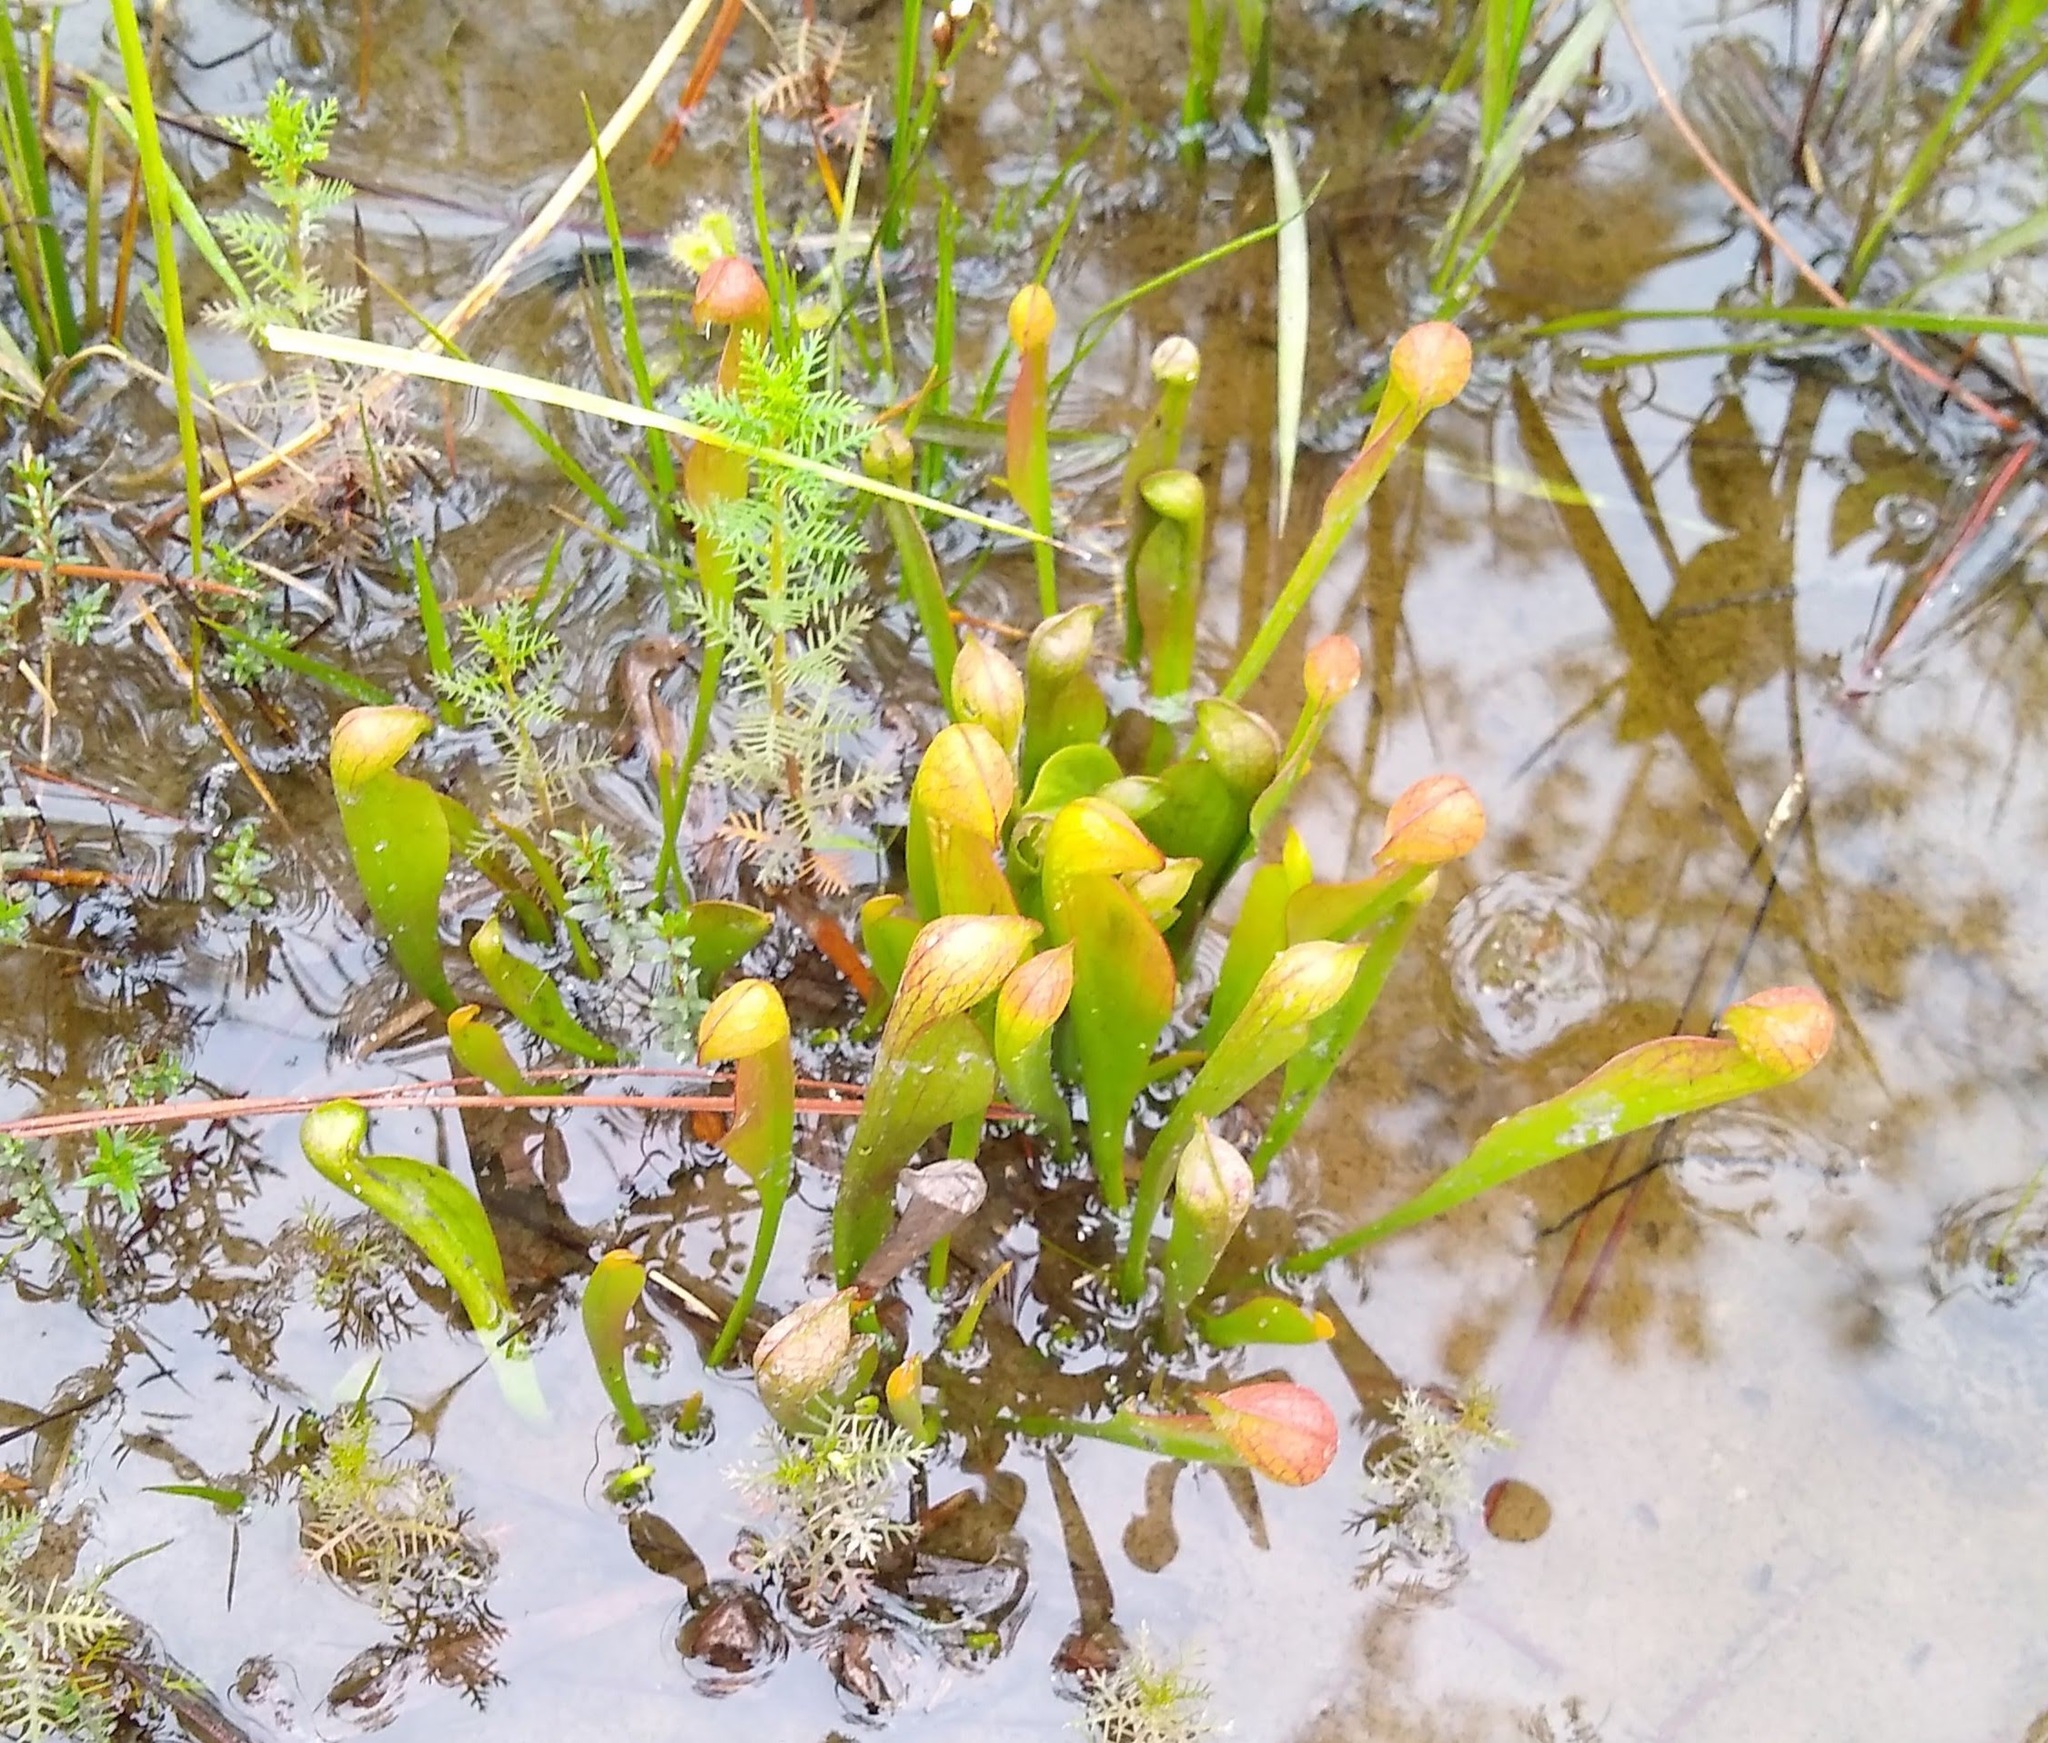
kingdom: Plantae
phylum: Tracheophyta
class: Magnoliopsida
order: Ericales
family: Sarraceniaceae
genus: Sarracenia
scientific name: Sarracenia psittacina
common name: Parrot pitcherplant
